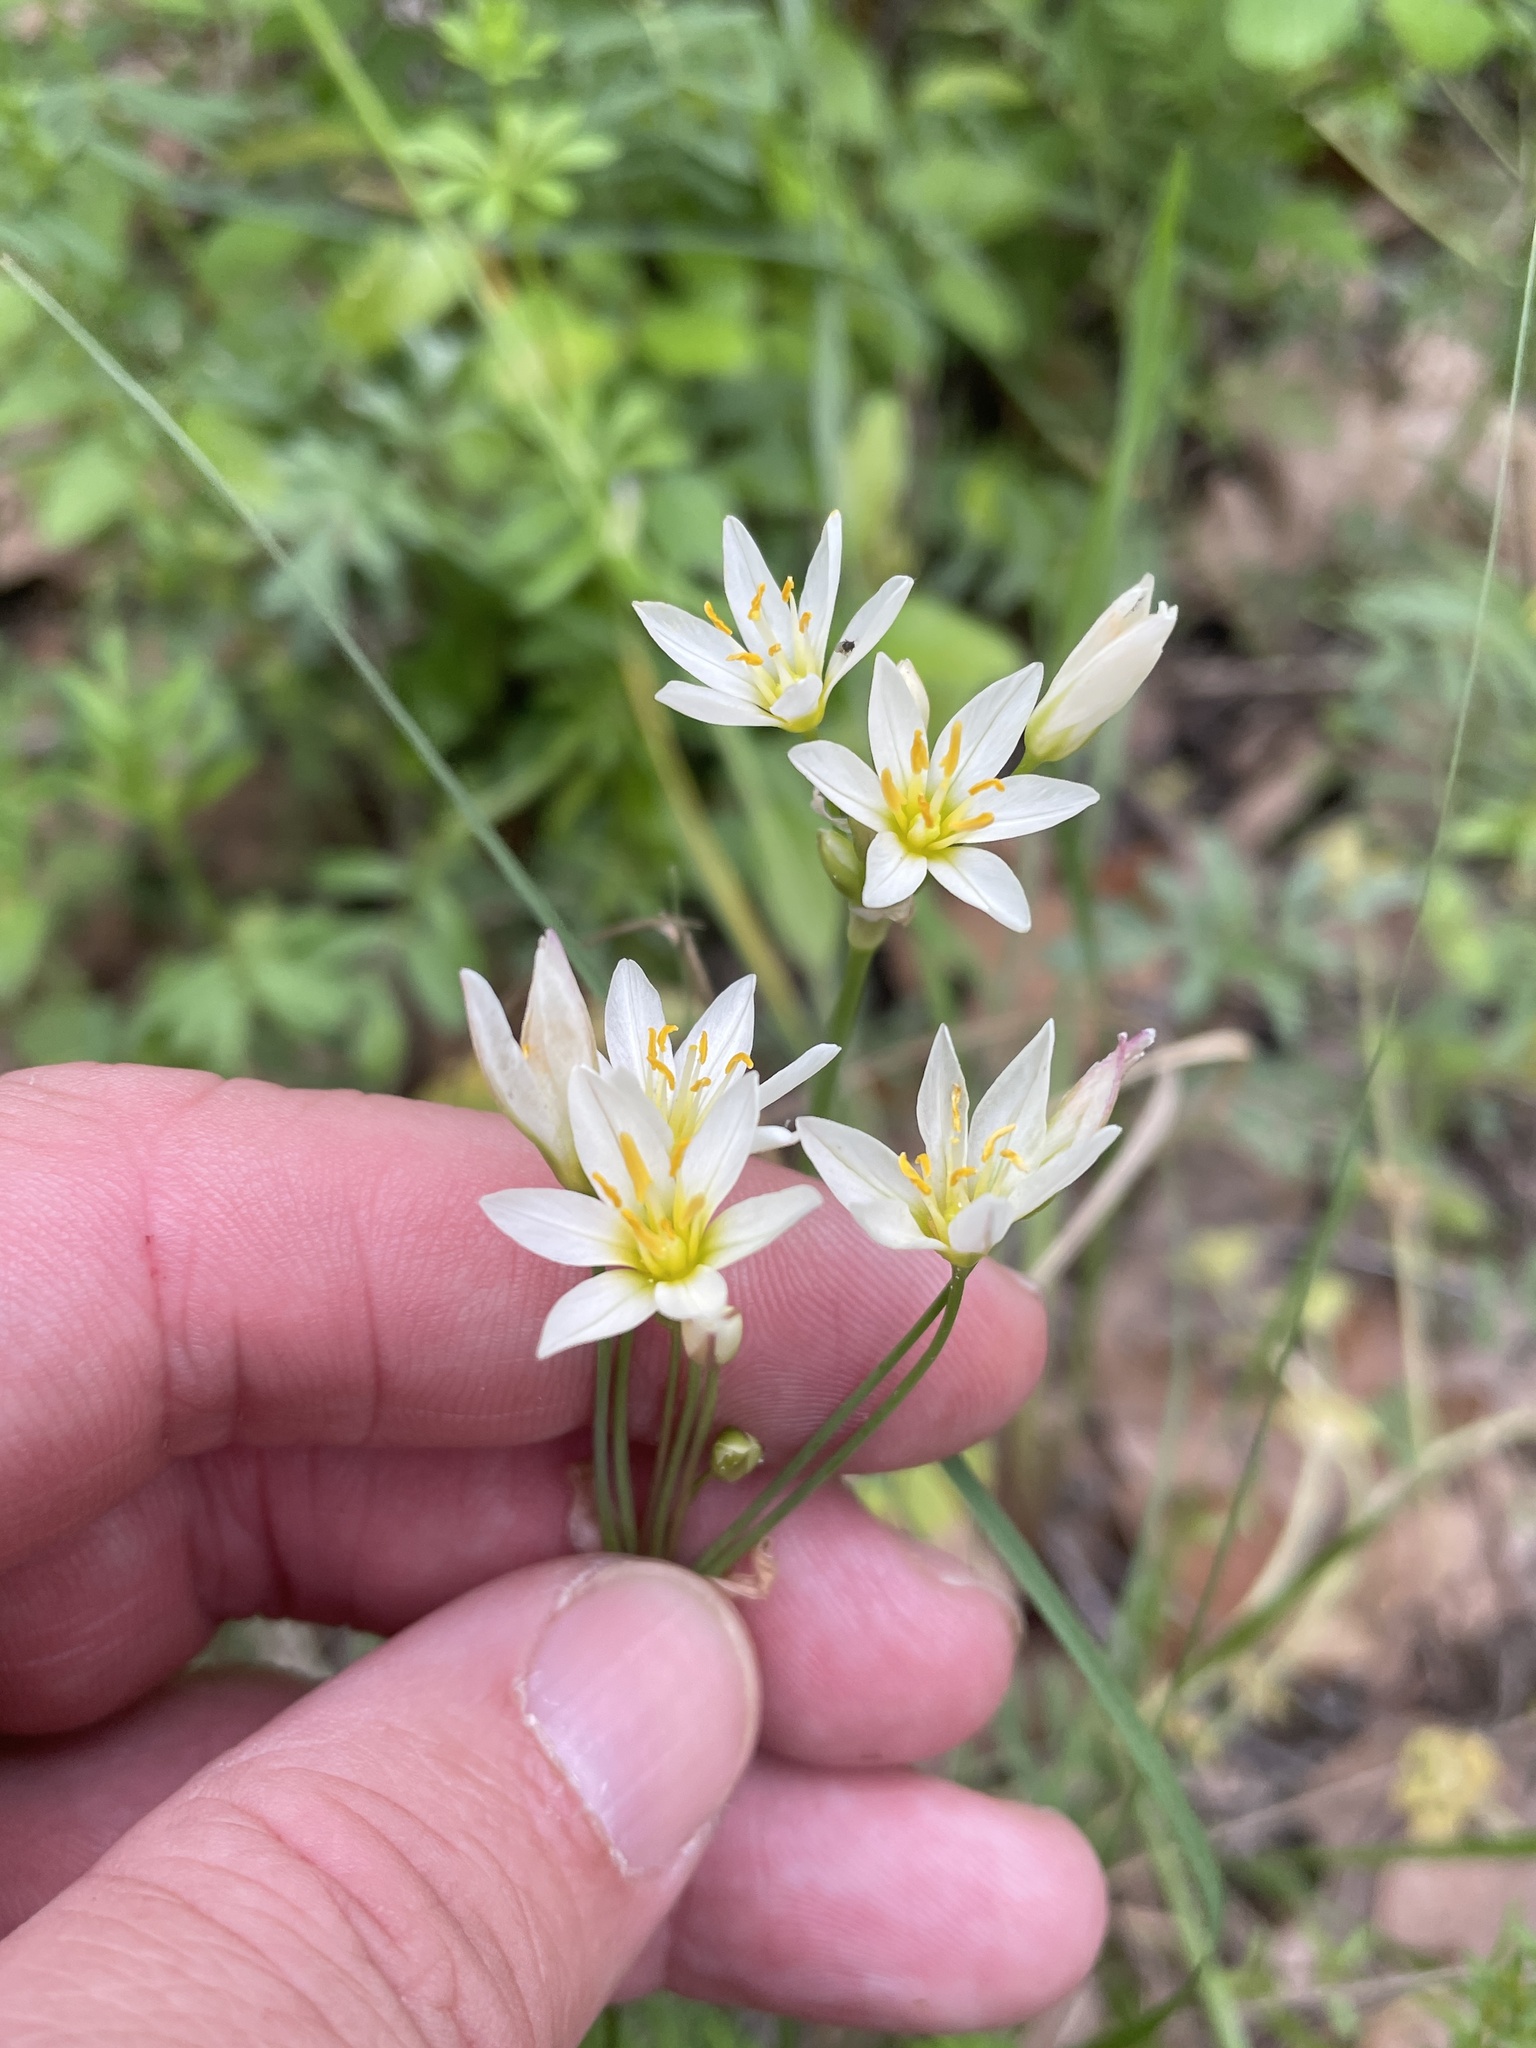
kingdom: Plantae
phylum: Tracheophyta
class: Liliopsida
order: Asparagales
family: Amaryllidaceae
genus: Nothoscordum
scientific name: Nothoscordum bivalve
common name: Crow-poison
